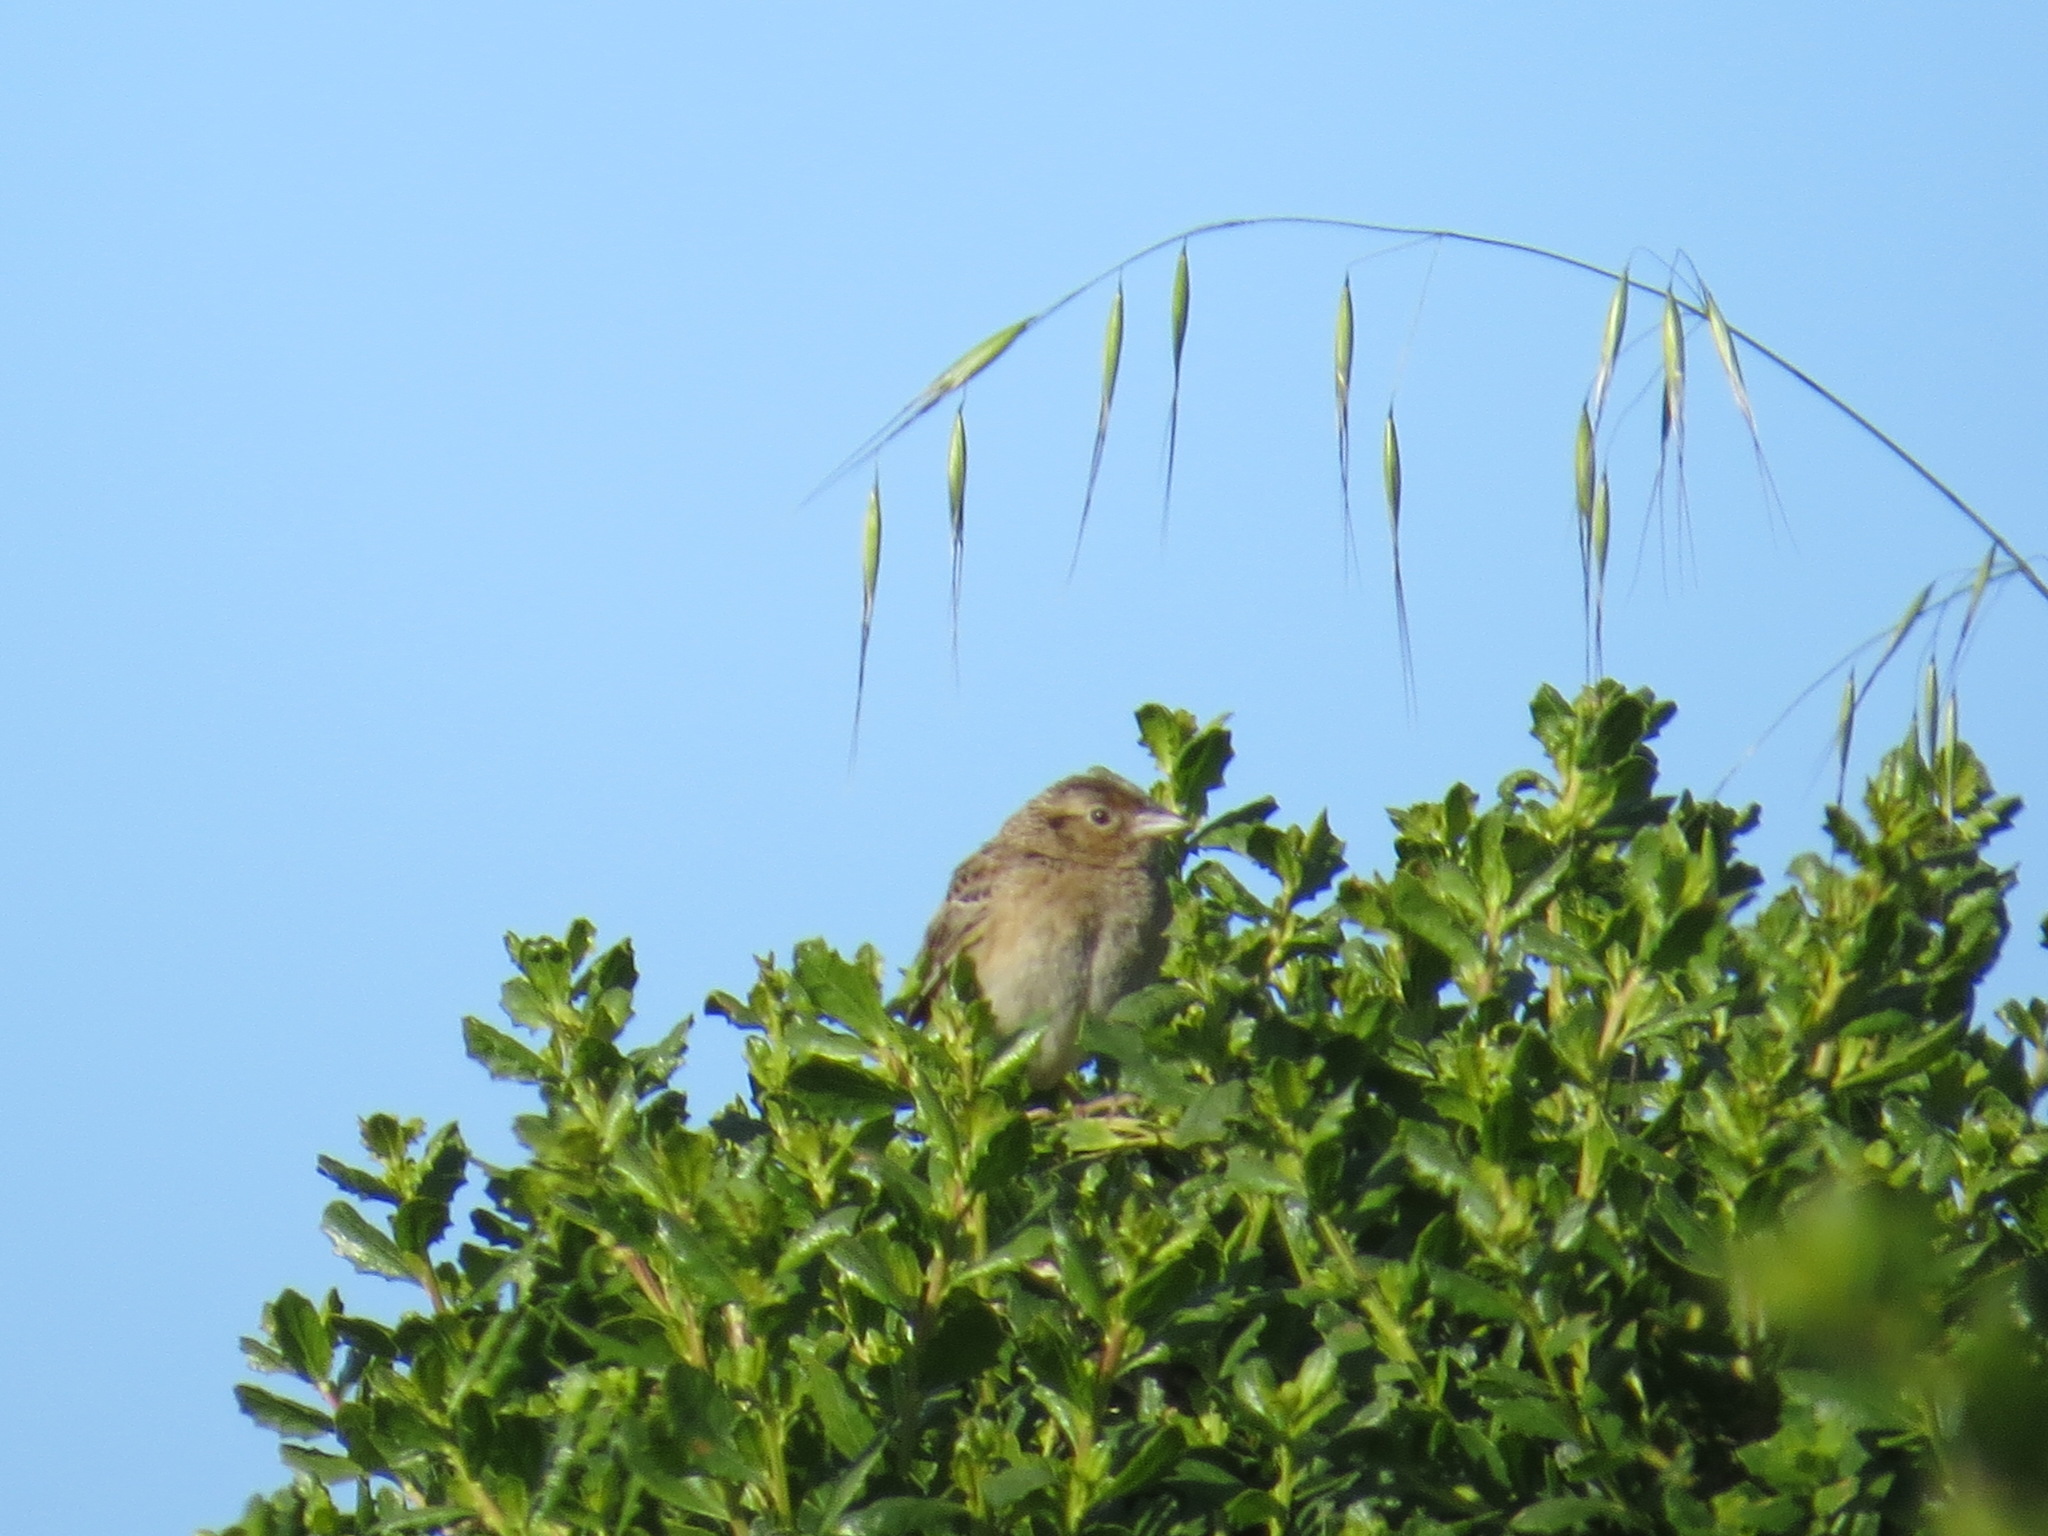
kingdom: Animalia
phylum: Chordata
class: Aves
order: Passeriformes
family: Passerellidae
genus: Ammodramus
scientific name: Ammodramus savannarum
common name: Grasshopper sparrow
